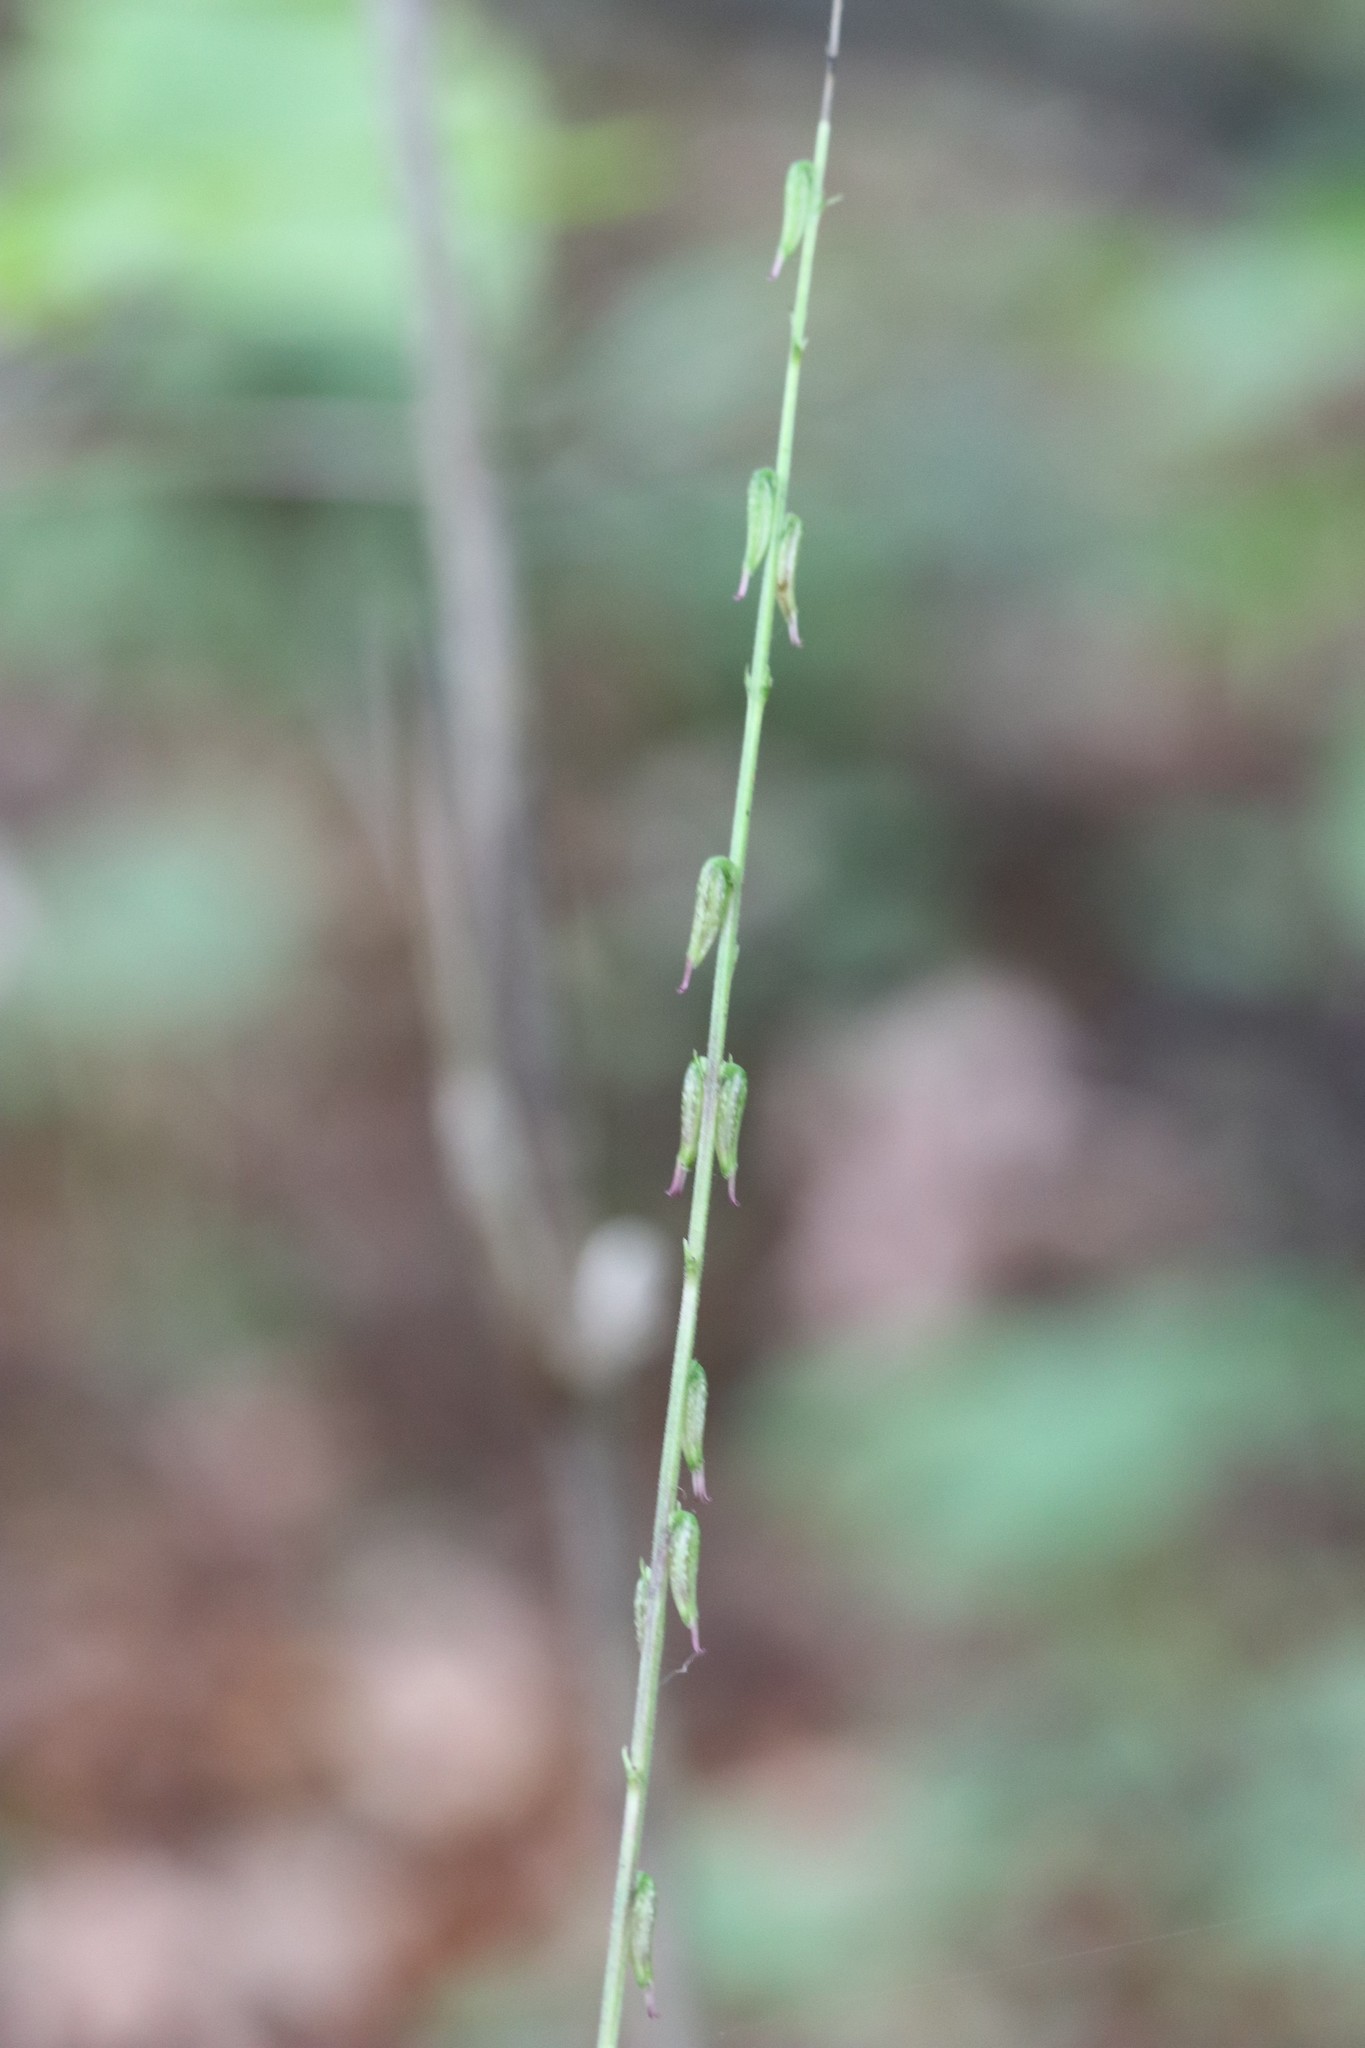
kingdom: Plantae
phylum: Tracheophyta
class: Magnoliopsida
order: Lamiales
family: Phrymaceae
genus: Phryma
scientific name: Phryma nana
